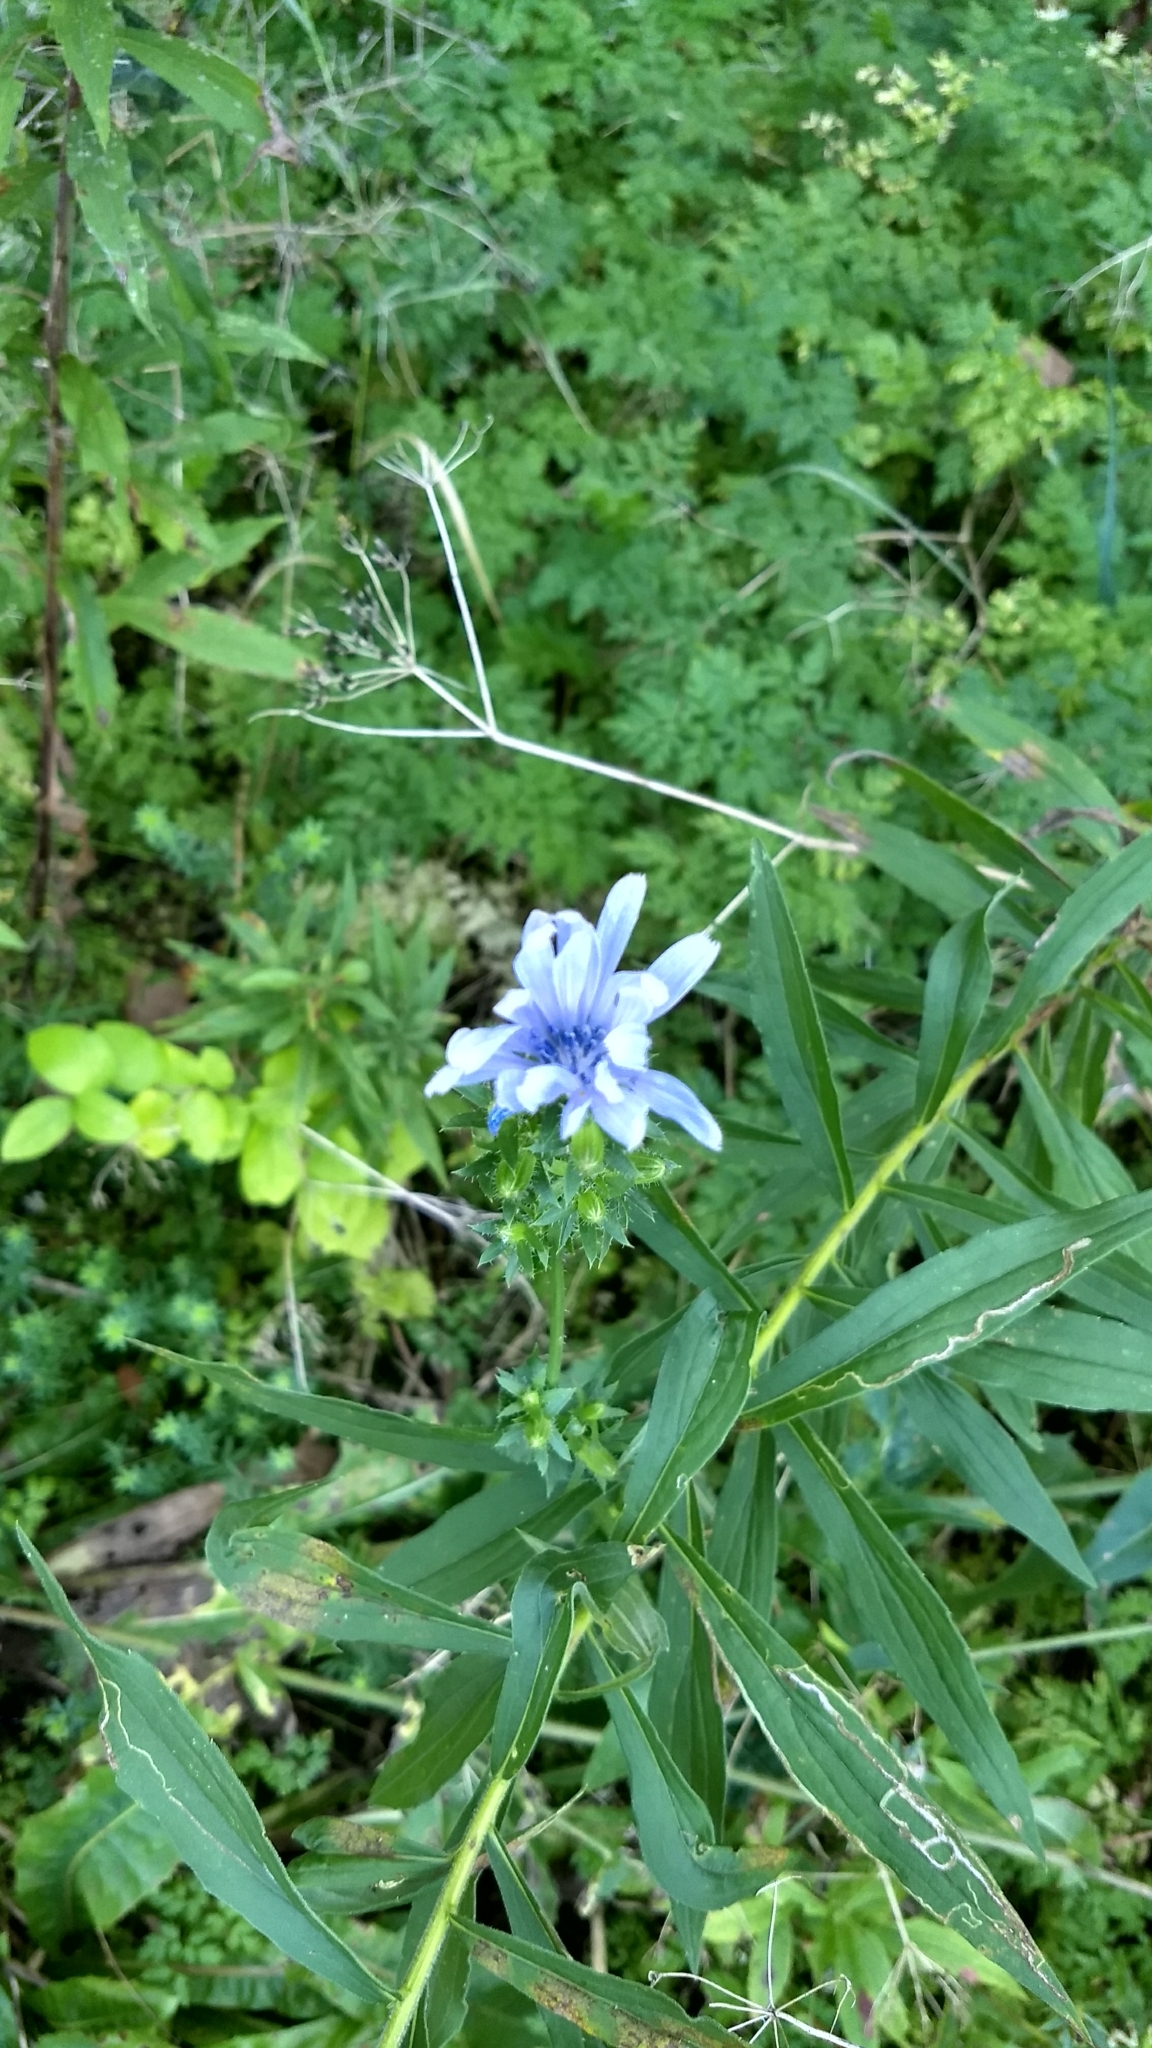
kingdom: Plantae
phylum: Tracheophyta
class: Magnoliopsida
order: Asterales
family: Asteraceae
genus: Cichorium
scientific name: Cichorium intybus
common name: Chicory
